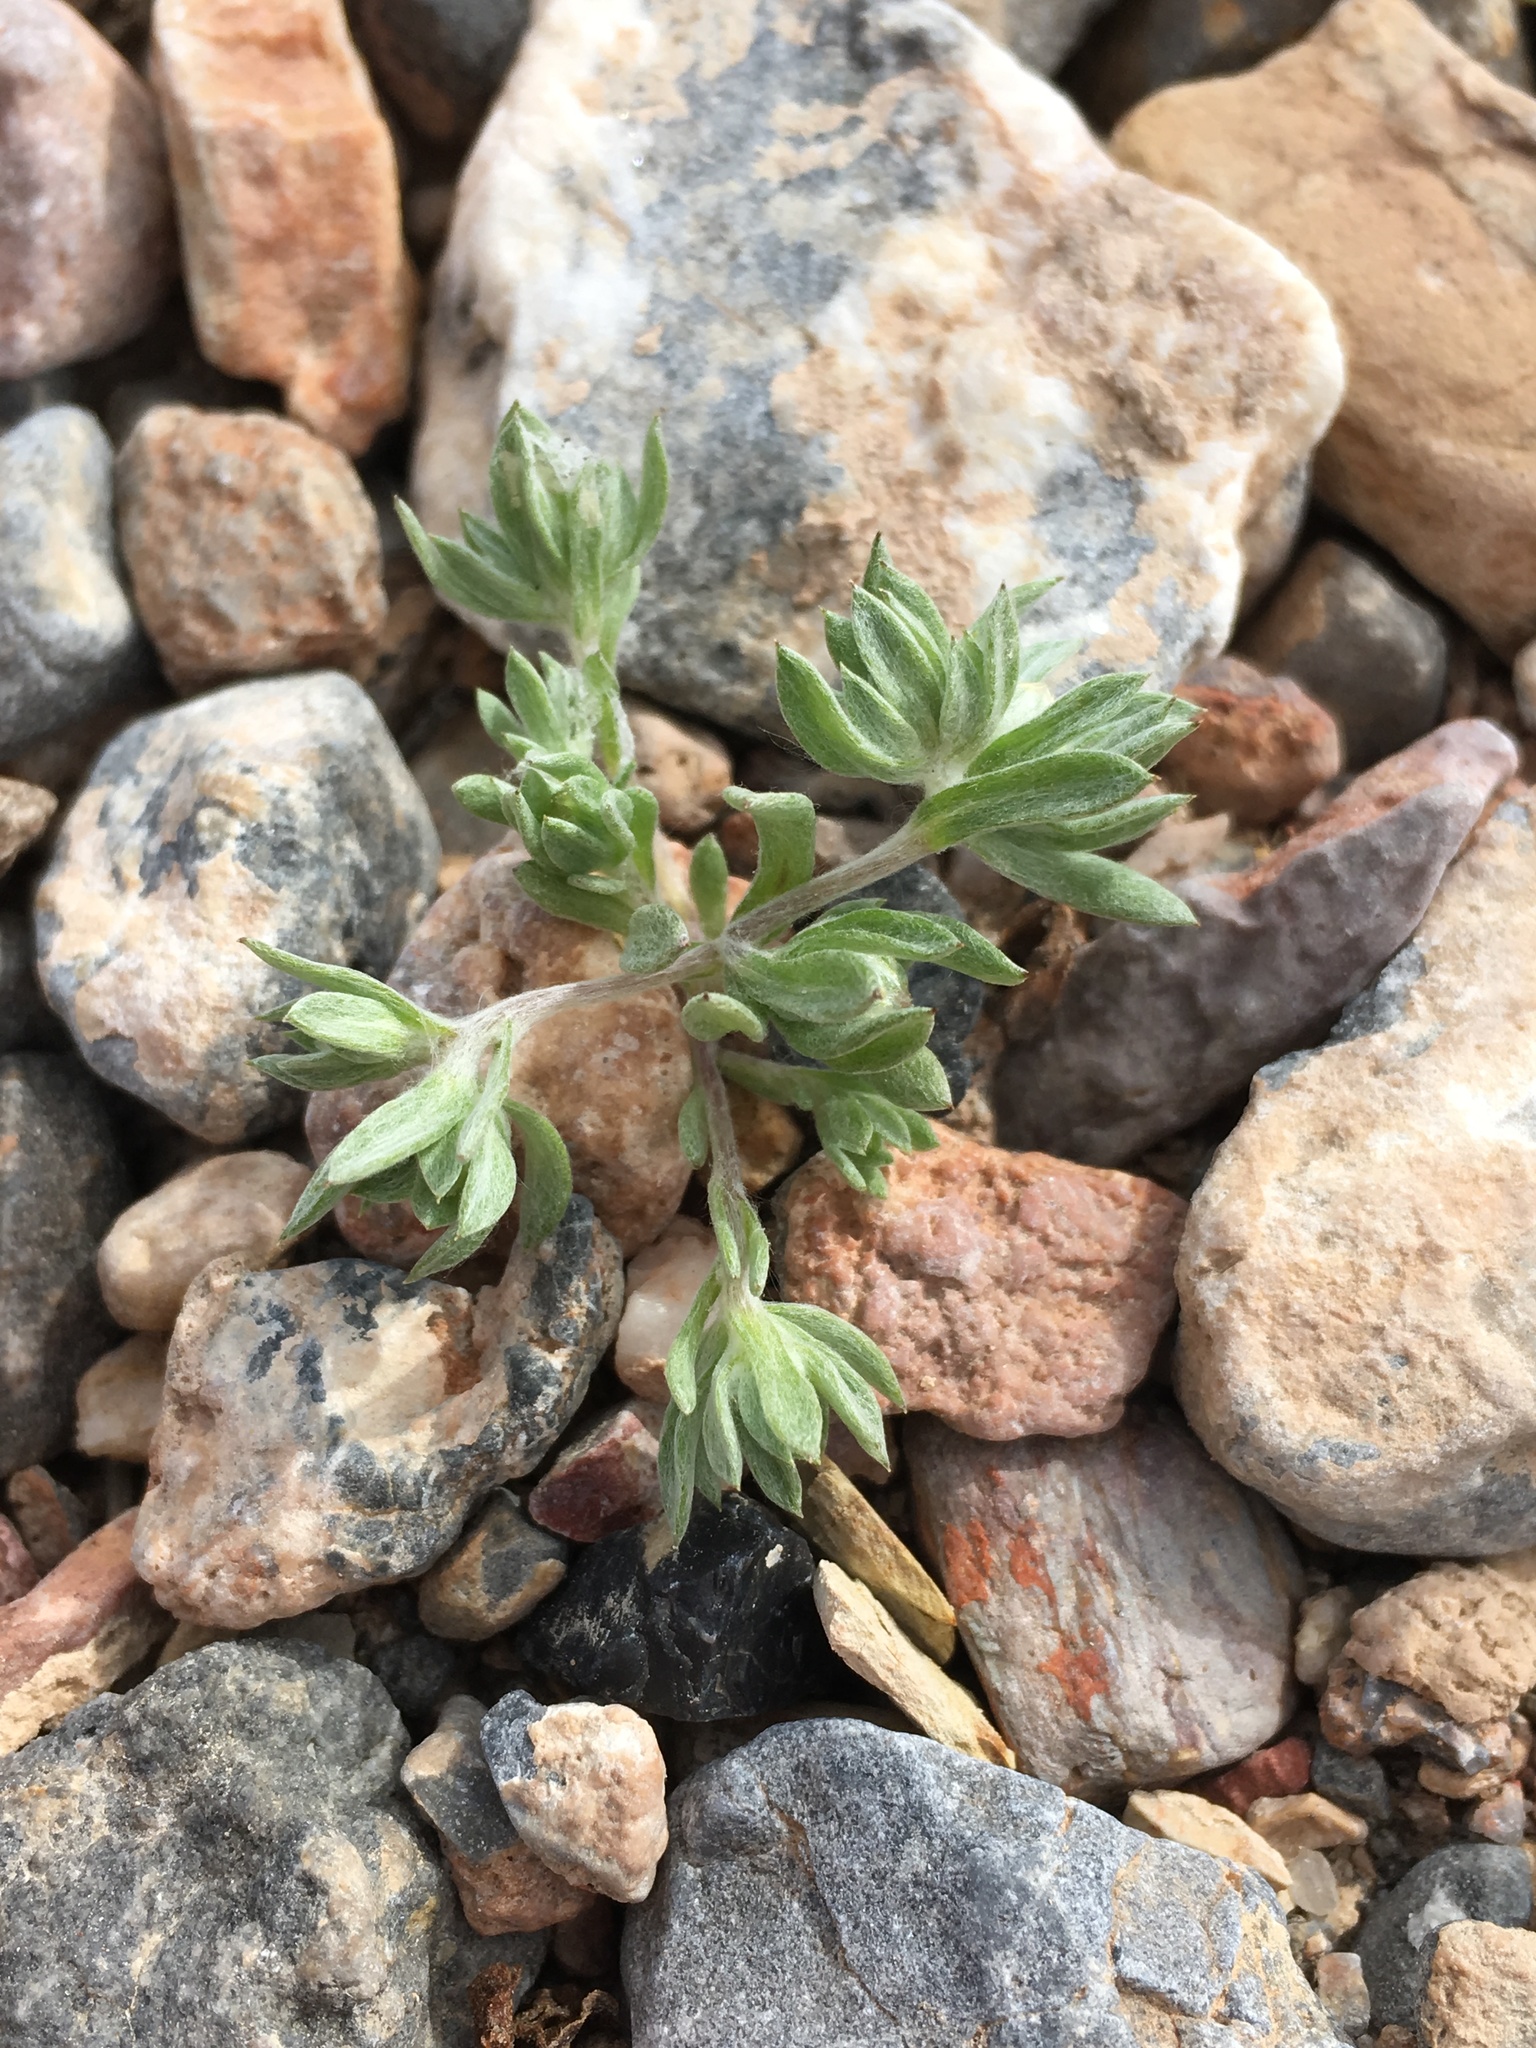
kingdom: Plantae
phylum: Tracheophyta
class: Magnoliopsida
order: Asterales
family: Asteraceae
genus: Stylocline
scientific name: Stylocline intertexta
